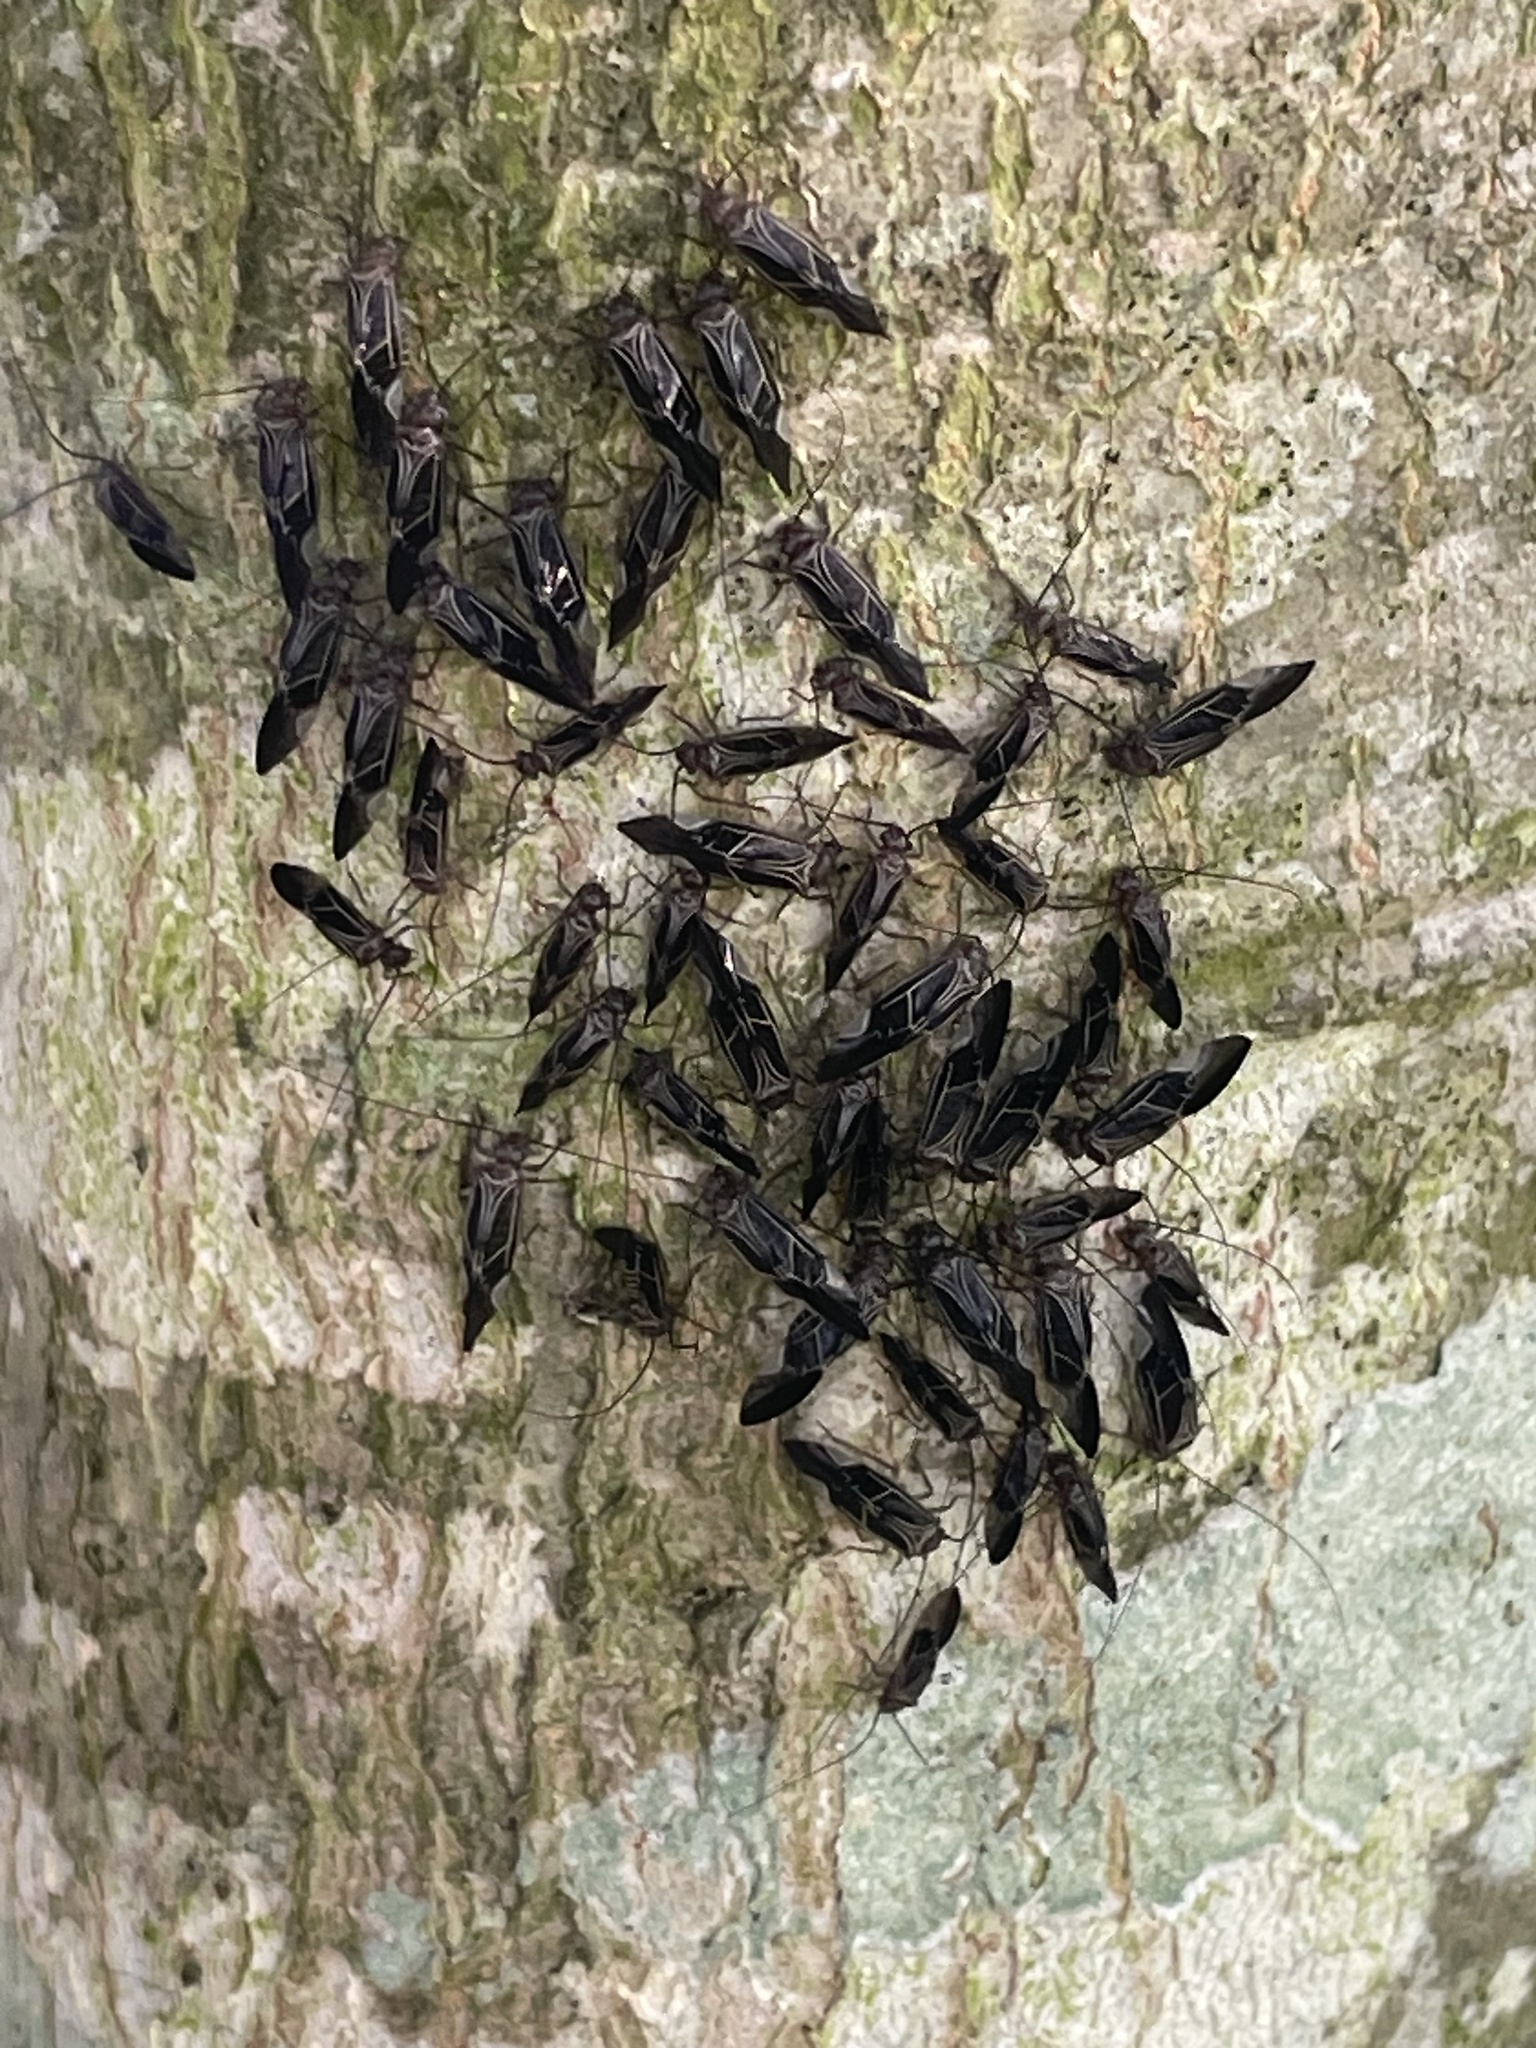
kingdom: Animalia
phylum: Arthropoda
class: Insecta
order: Psocodea
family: Psocidae
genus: Cerastipsocus
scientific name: Cerastipsocus venosus
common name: Tree cattle
